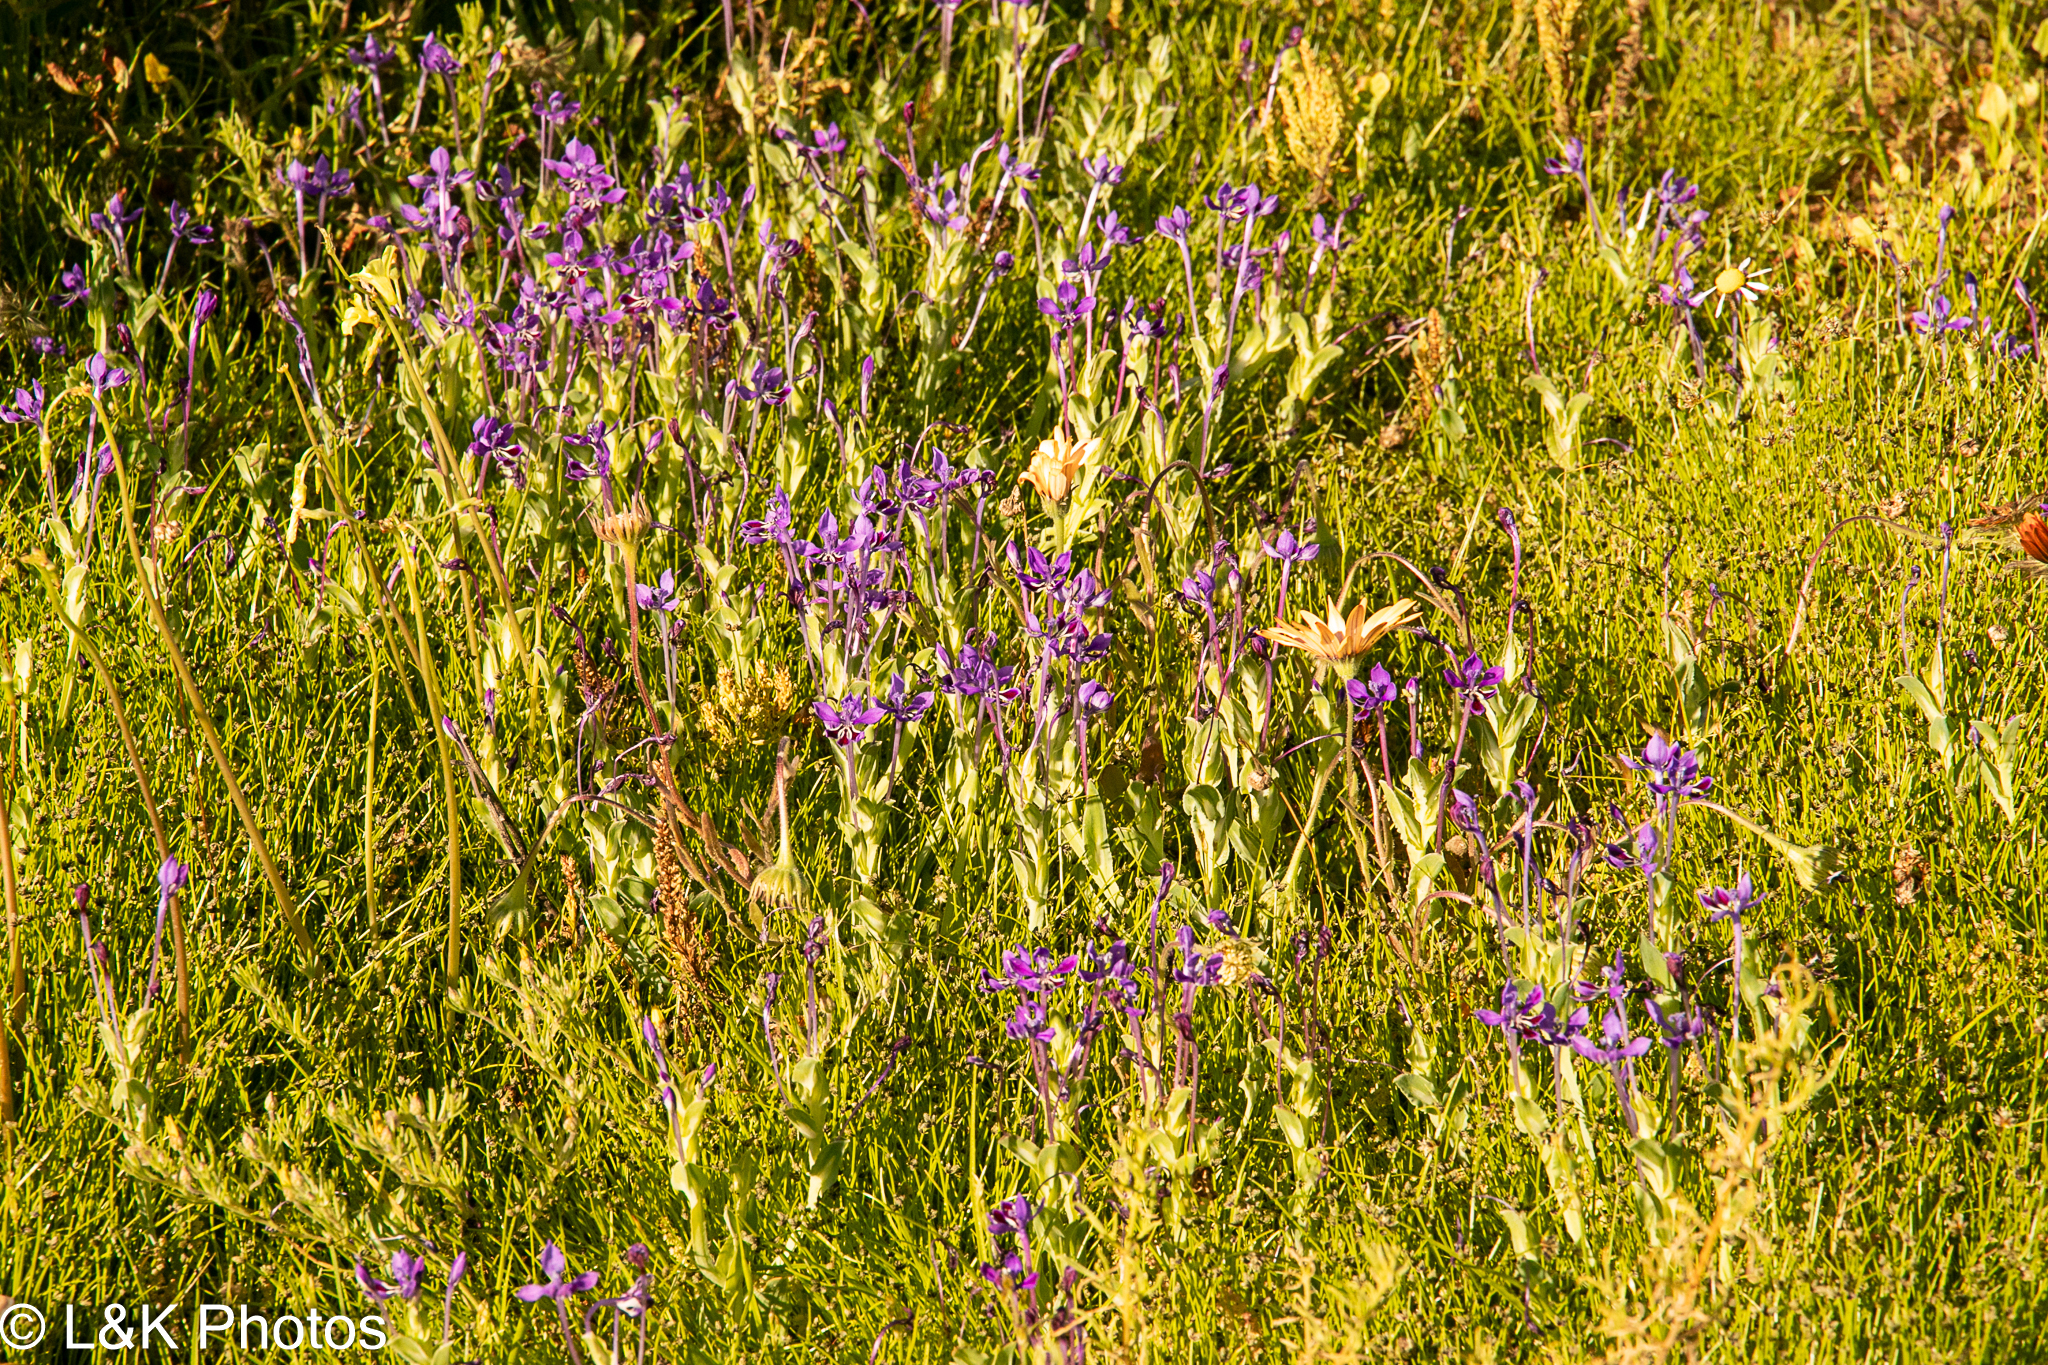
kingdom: Plantae
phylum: Tracheophyta
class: Liliopsida
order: Asparagales
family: Iridaceae
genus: Lapeirousia
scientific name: Lapeirousia jacquinii
